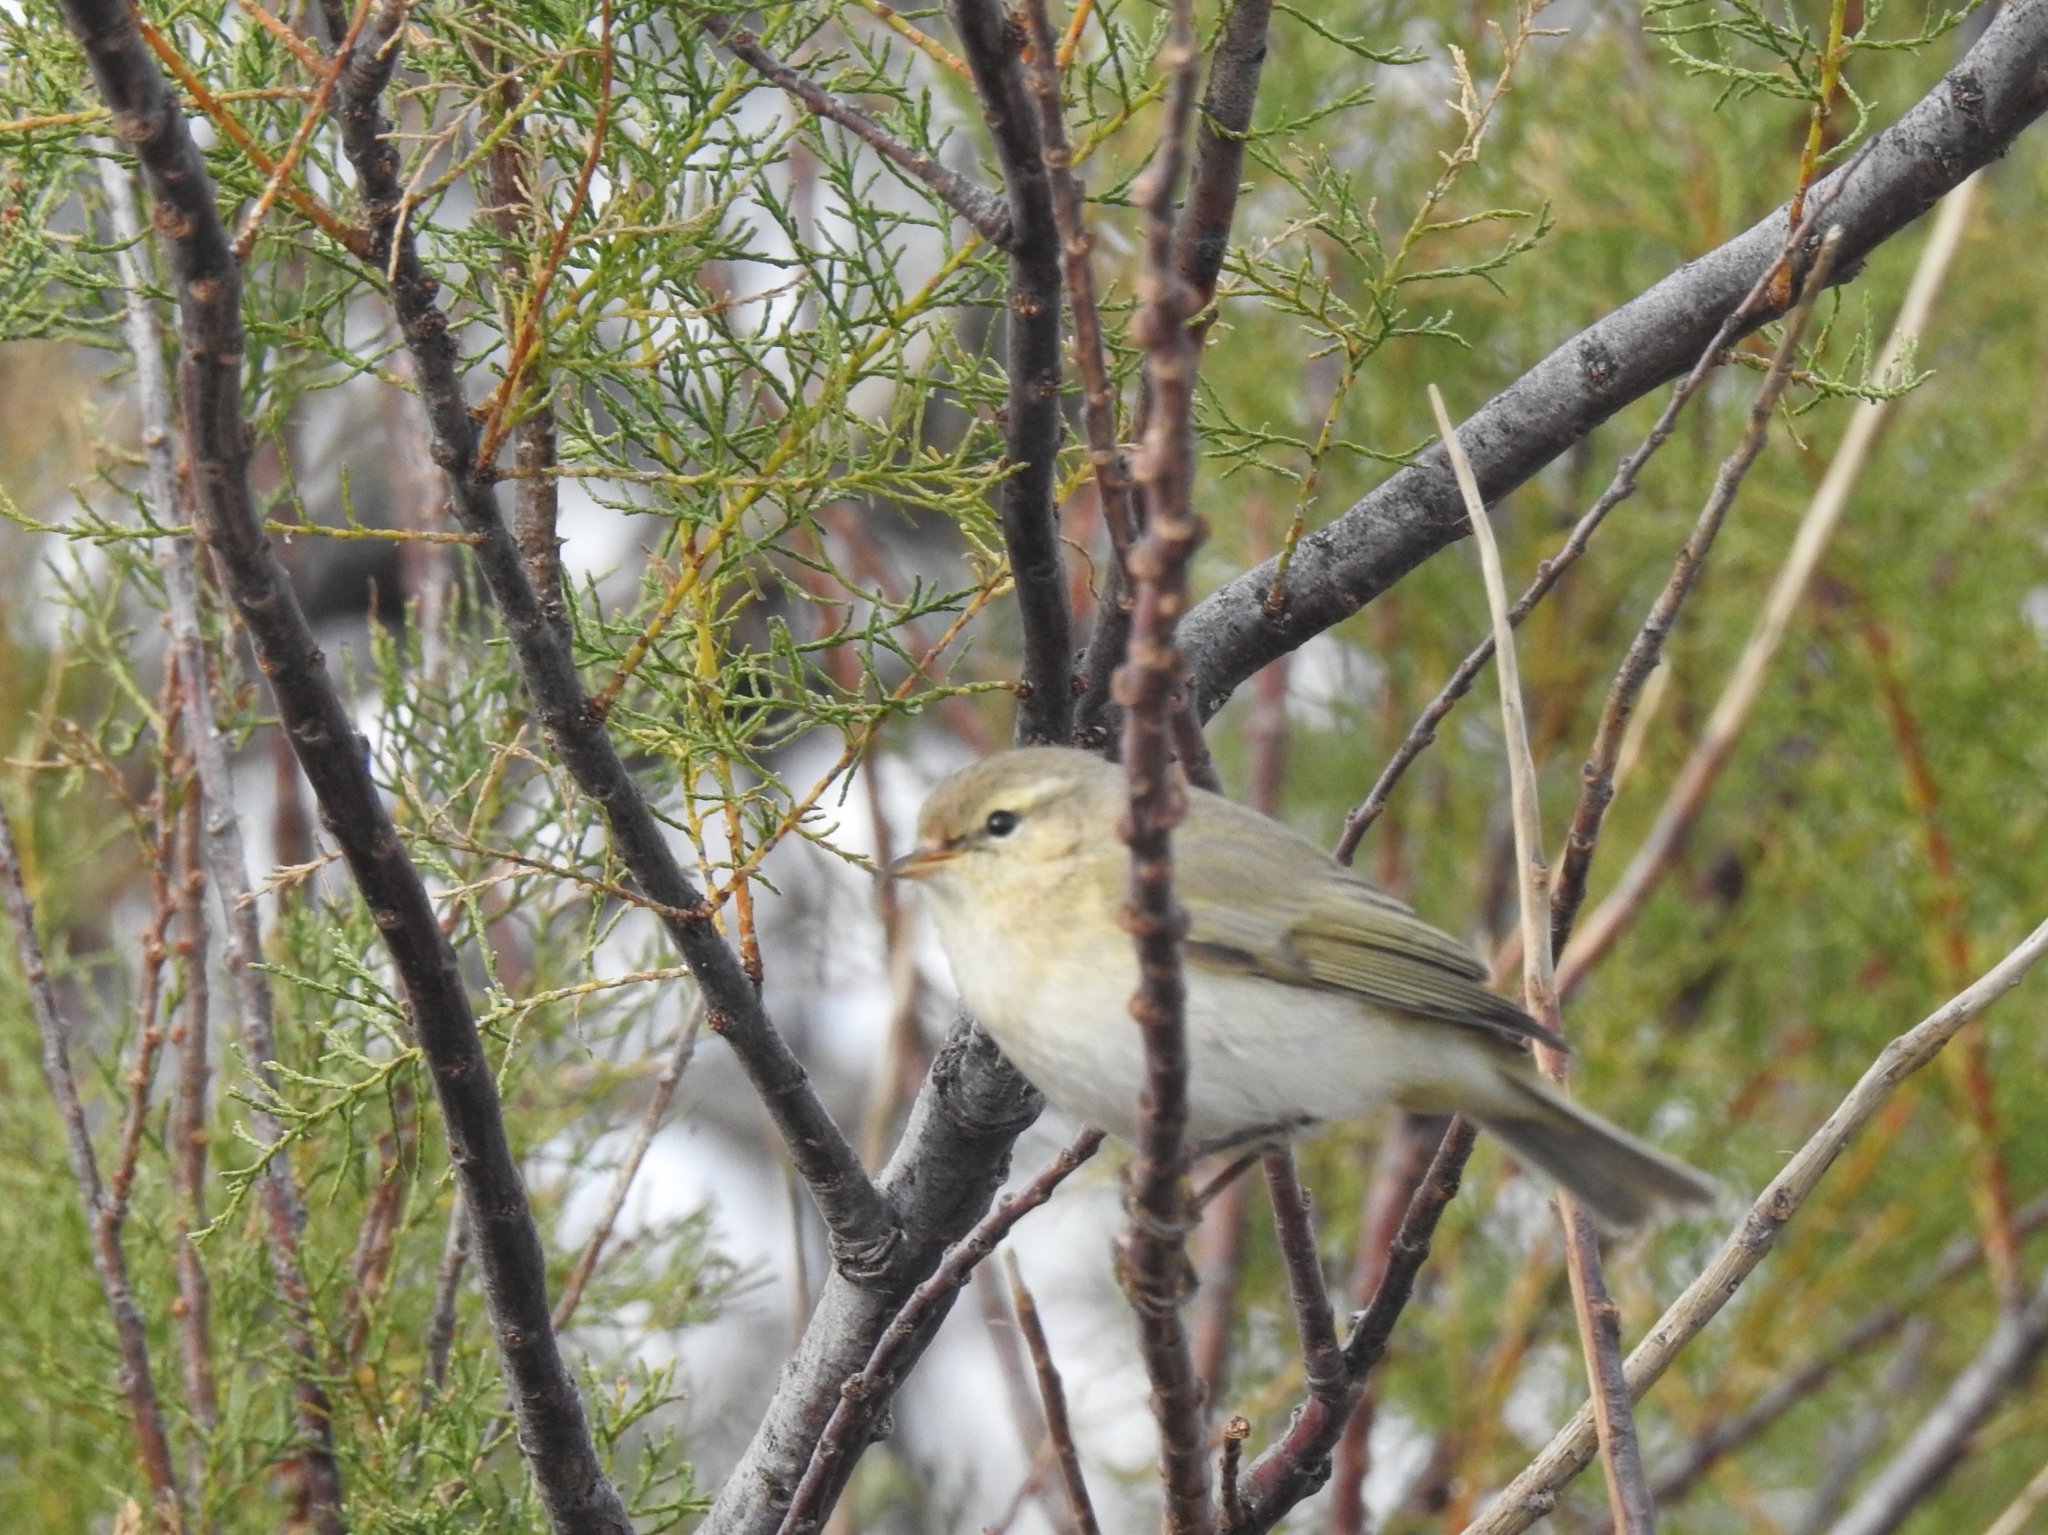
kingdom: Animalia
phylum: Chordata
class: Aves
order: Passeriformes
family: Phylloscopidae
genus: Phylloscopus
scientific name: Phylloscopus collybita
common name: Common chiffchaff
